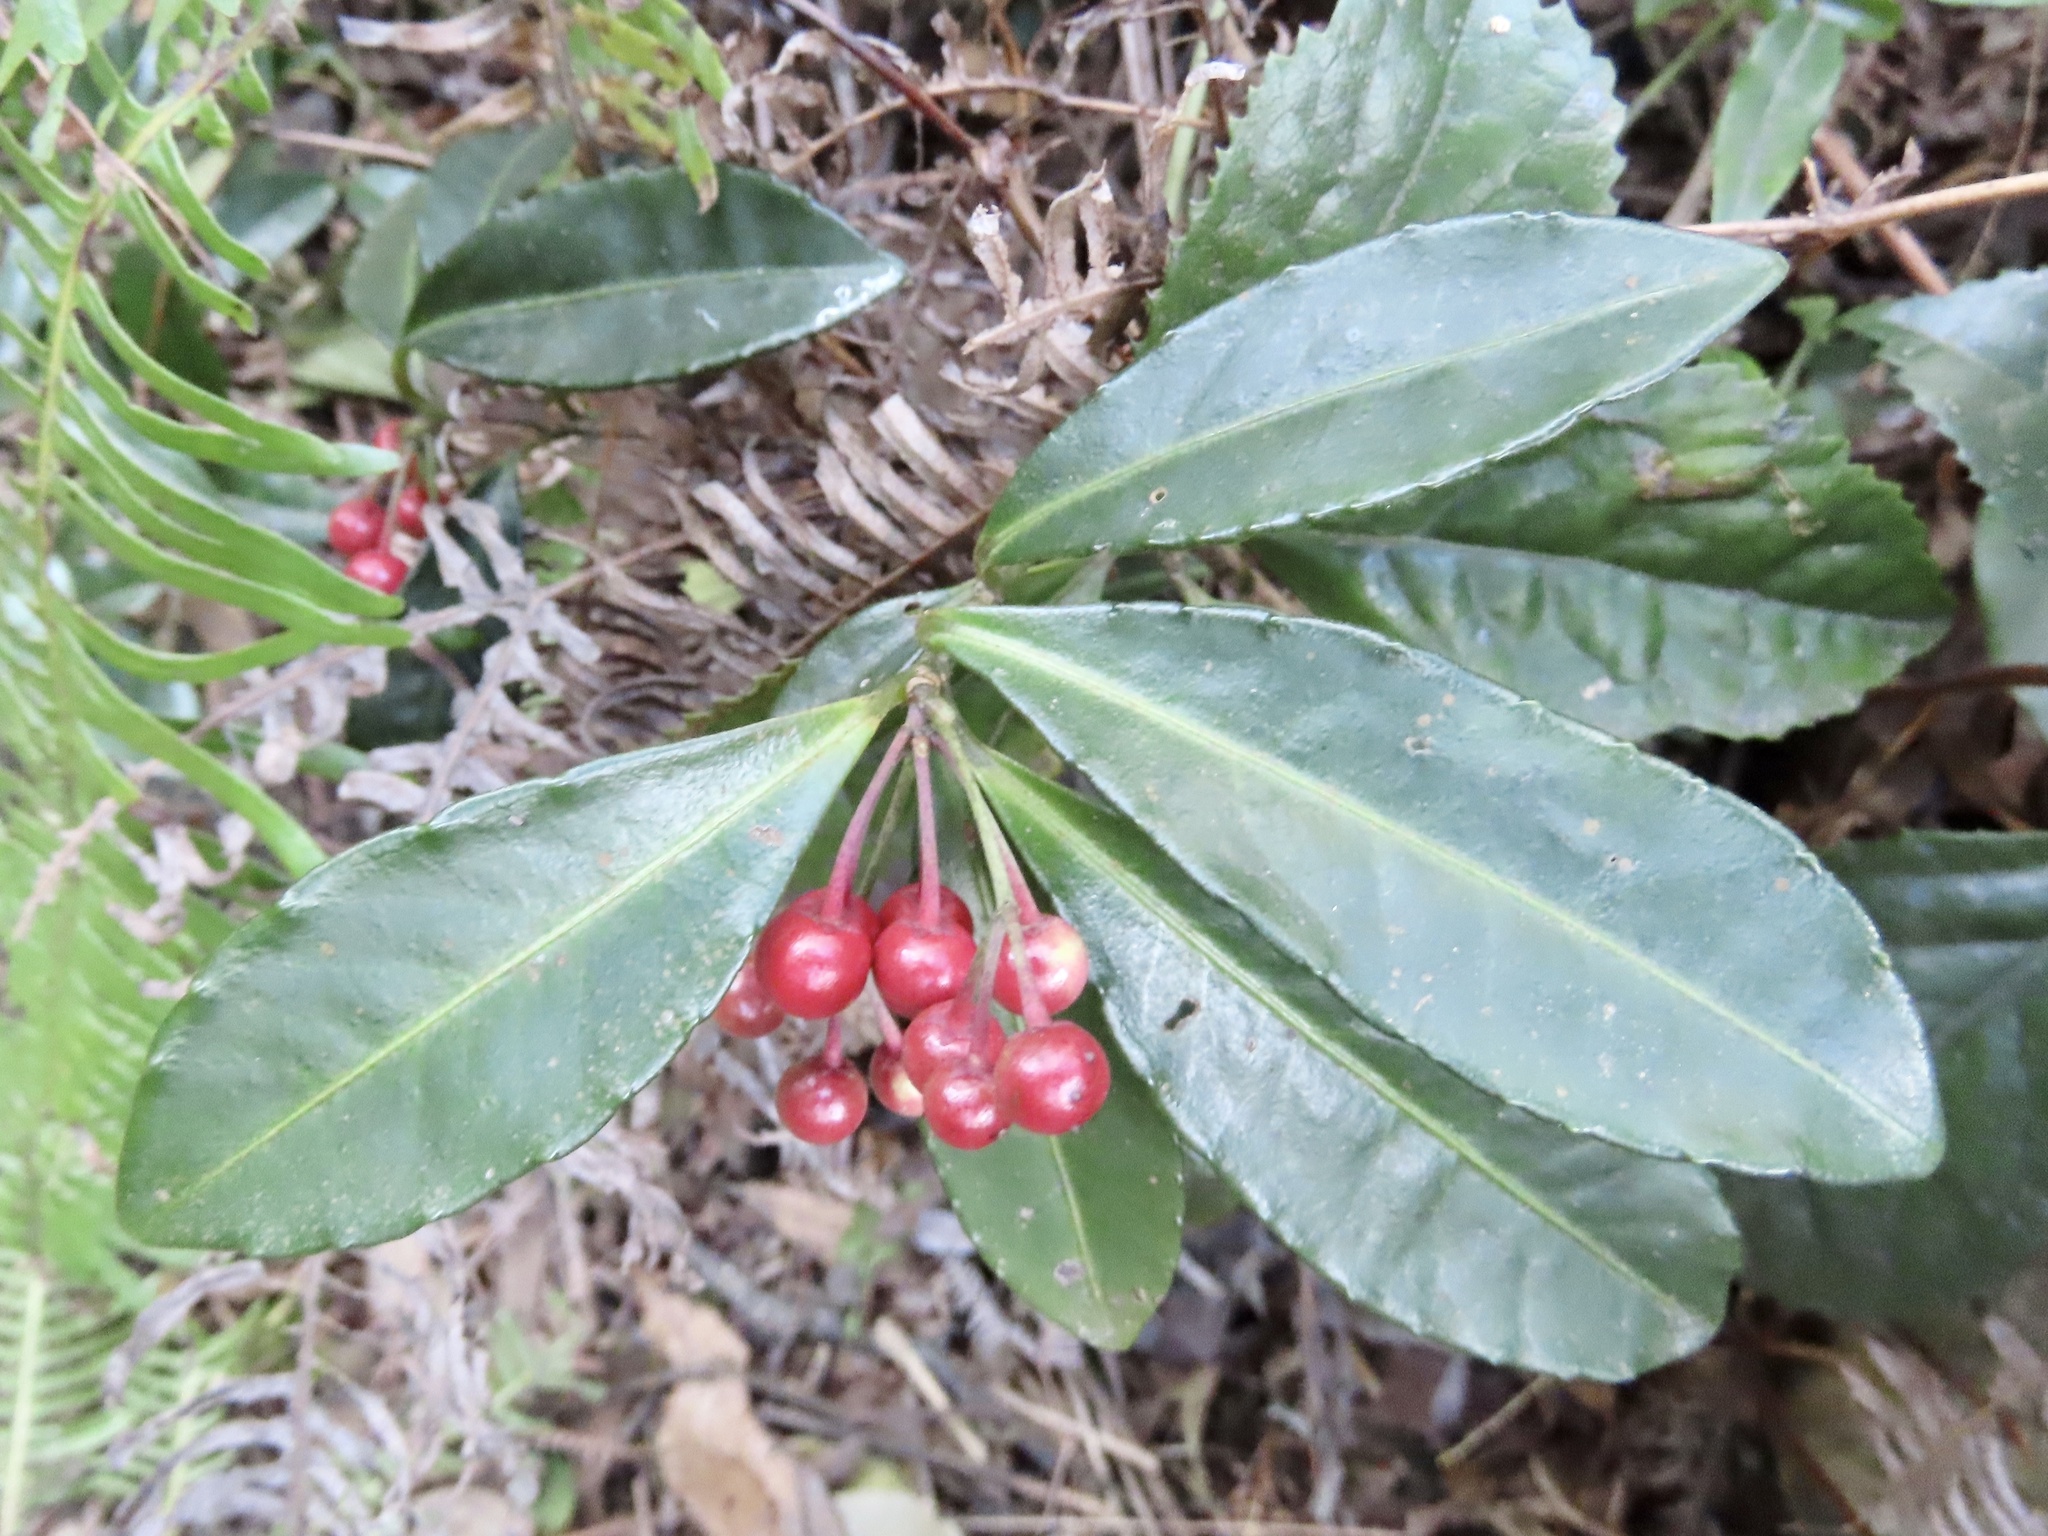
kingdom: Plantae
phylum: Tracheophyta
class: Magnoliopsida
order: Ericales
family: Primulaceae
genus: Ardisia
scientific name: Ardisia crenata
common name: Hen's eyes
